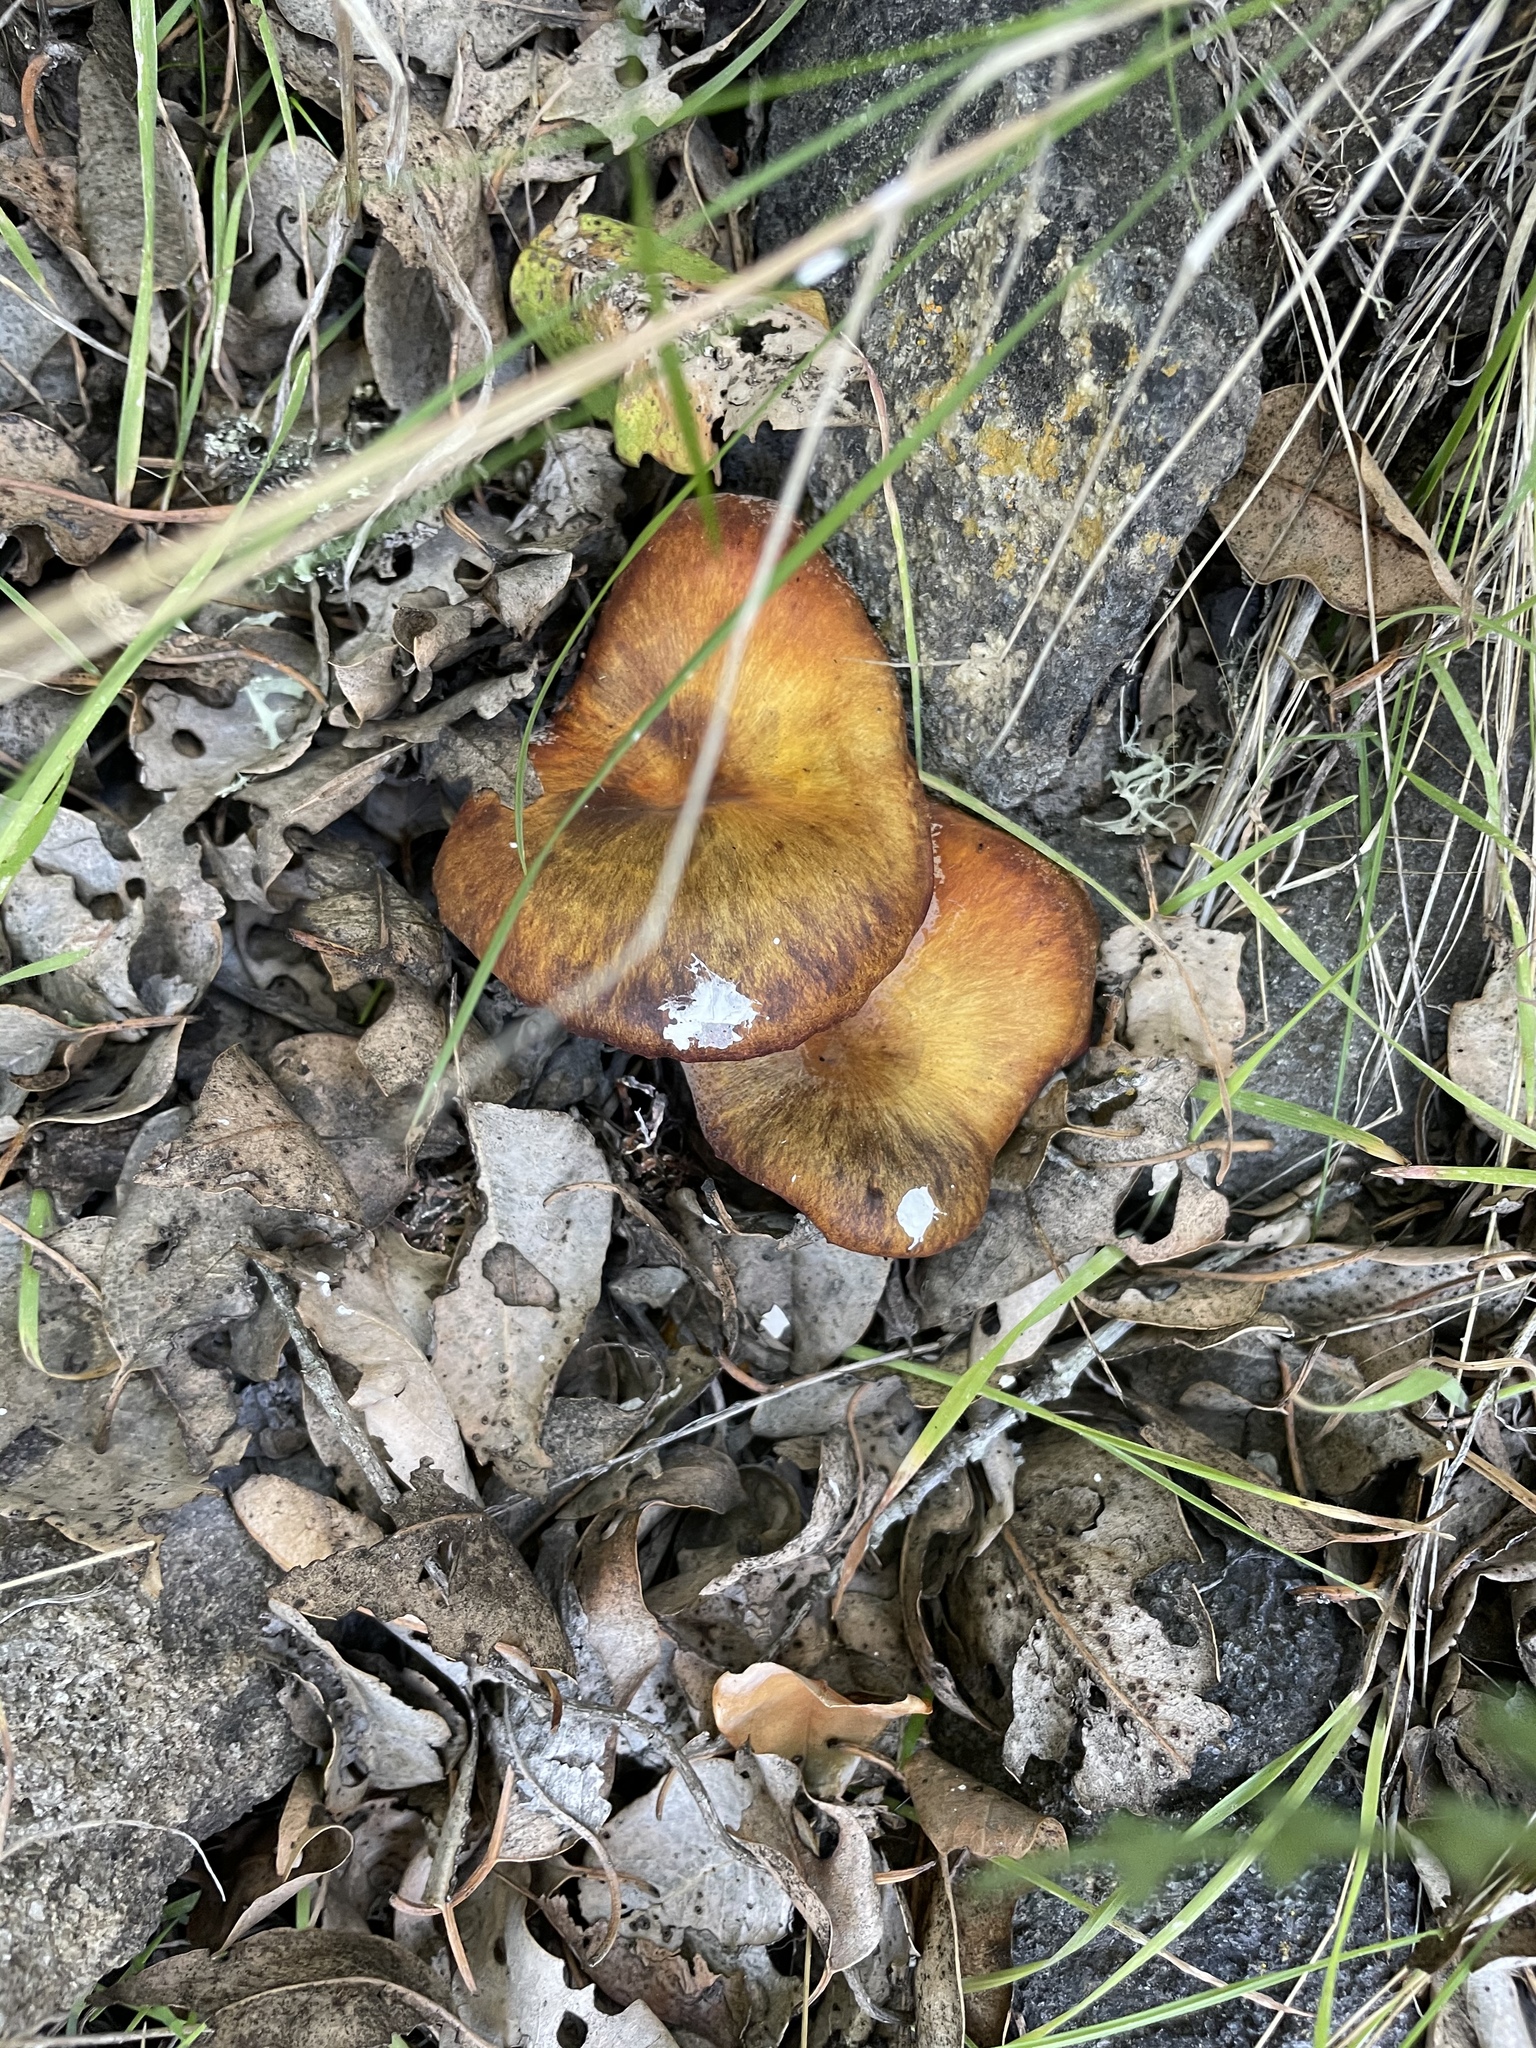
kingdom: Fungi
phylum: Basidiomycota
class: Agaricomycetes
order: Agaricales
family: Omphalotaceae
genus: Omphalotus
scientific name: Omphalotus olivascens
